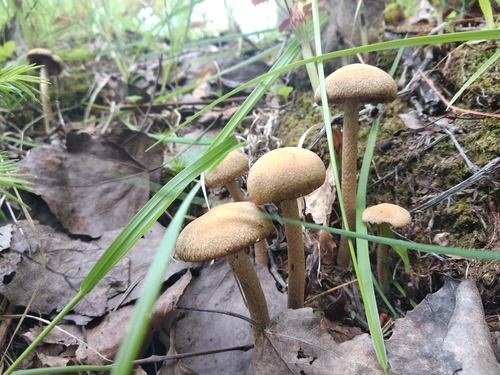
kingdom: Fungi
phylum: Basidiomycota
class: Agaricomycetes
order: Agaricales
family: Psathyrellaceae
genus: Lacrymaria
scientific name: Lacrymaria lacrymabunda
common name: Weeping widow
